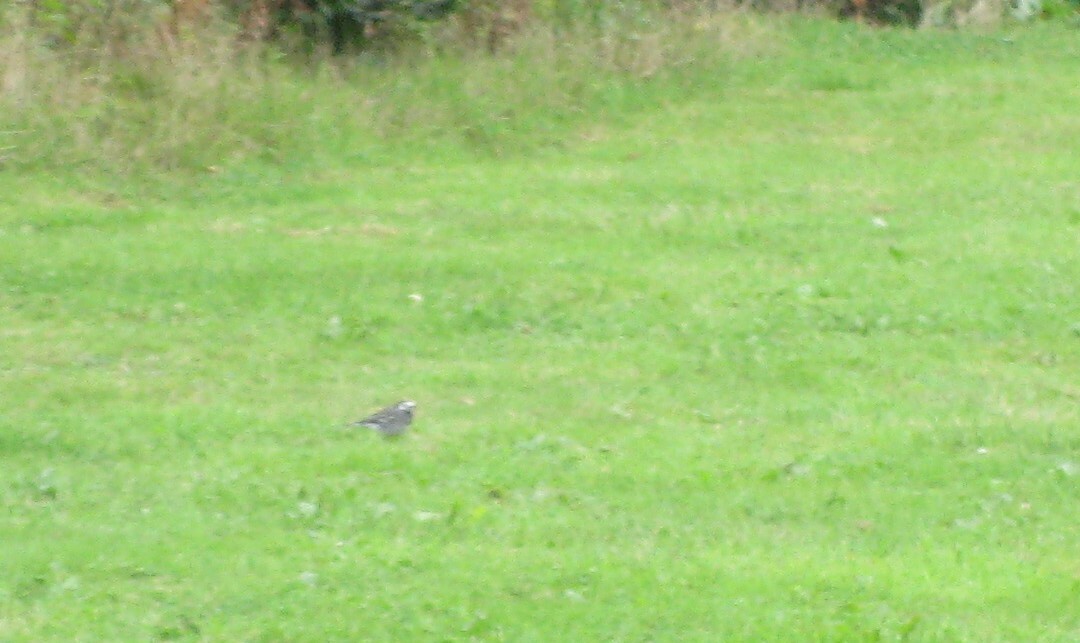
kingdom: Animalia
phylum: Chordata
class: Aves
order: Passeriformes
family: Motacillidae
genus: Motacilla
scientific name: Motacilla alba
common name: White wagtail
